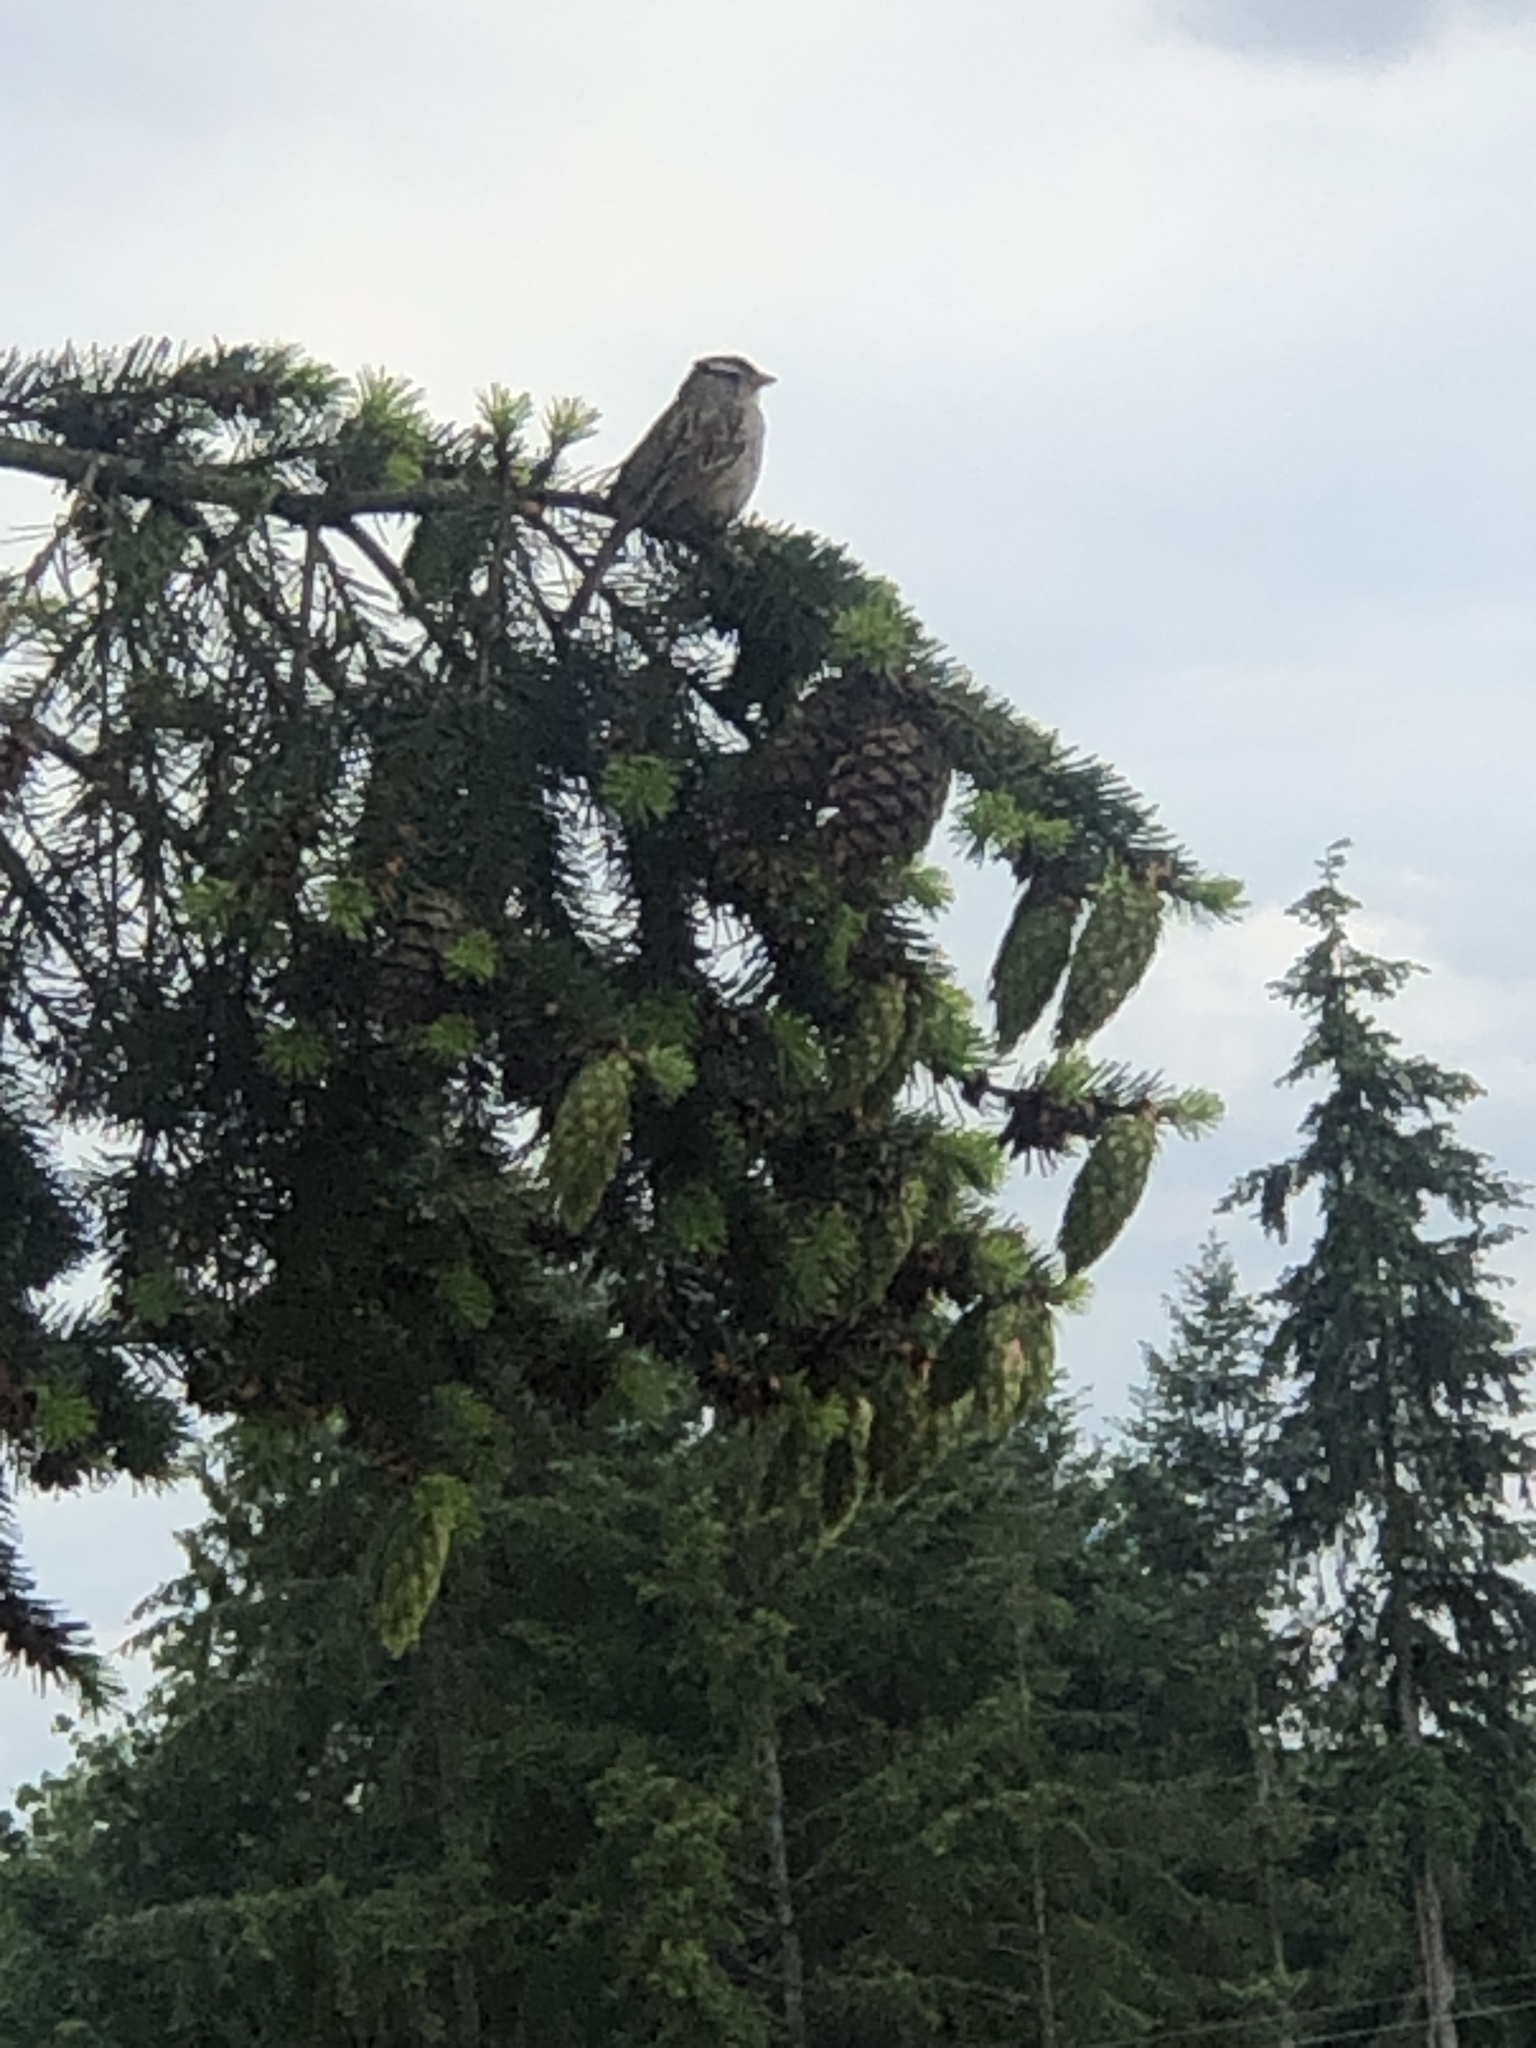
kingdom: Animalia
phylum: Chordata
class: Aves
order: Passeriformes
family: Passerellidae
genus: Zonotrichia
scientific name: Zonotrichia leucophrys
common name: White-crowned sparrow
